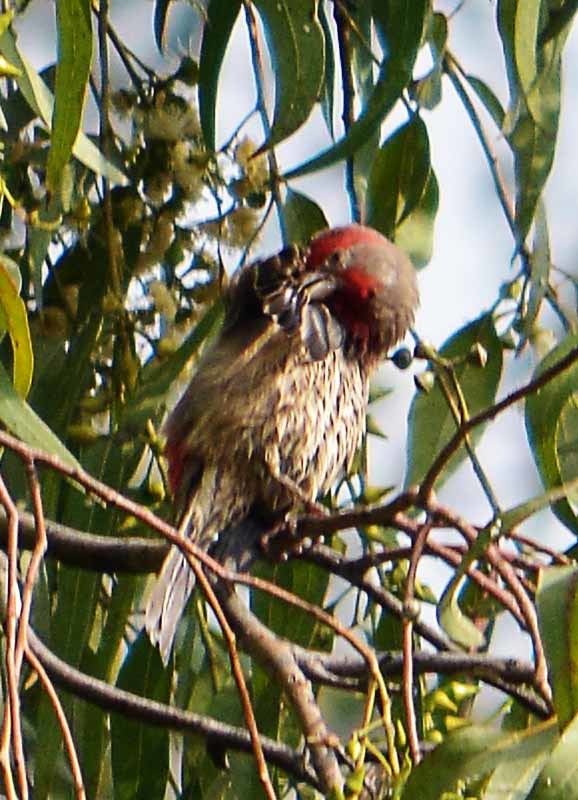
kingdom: Animalia
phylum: Chordata
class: Aves
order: Passeriformes
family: Fringillidae
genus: Haemorhous
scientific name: Haemorhous mexicanus
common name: House finch
